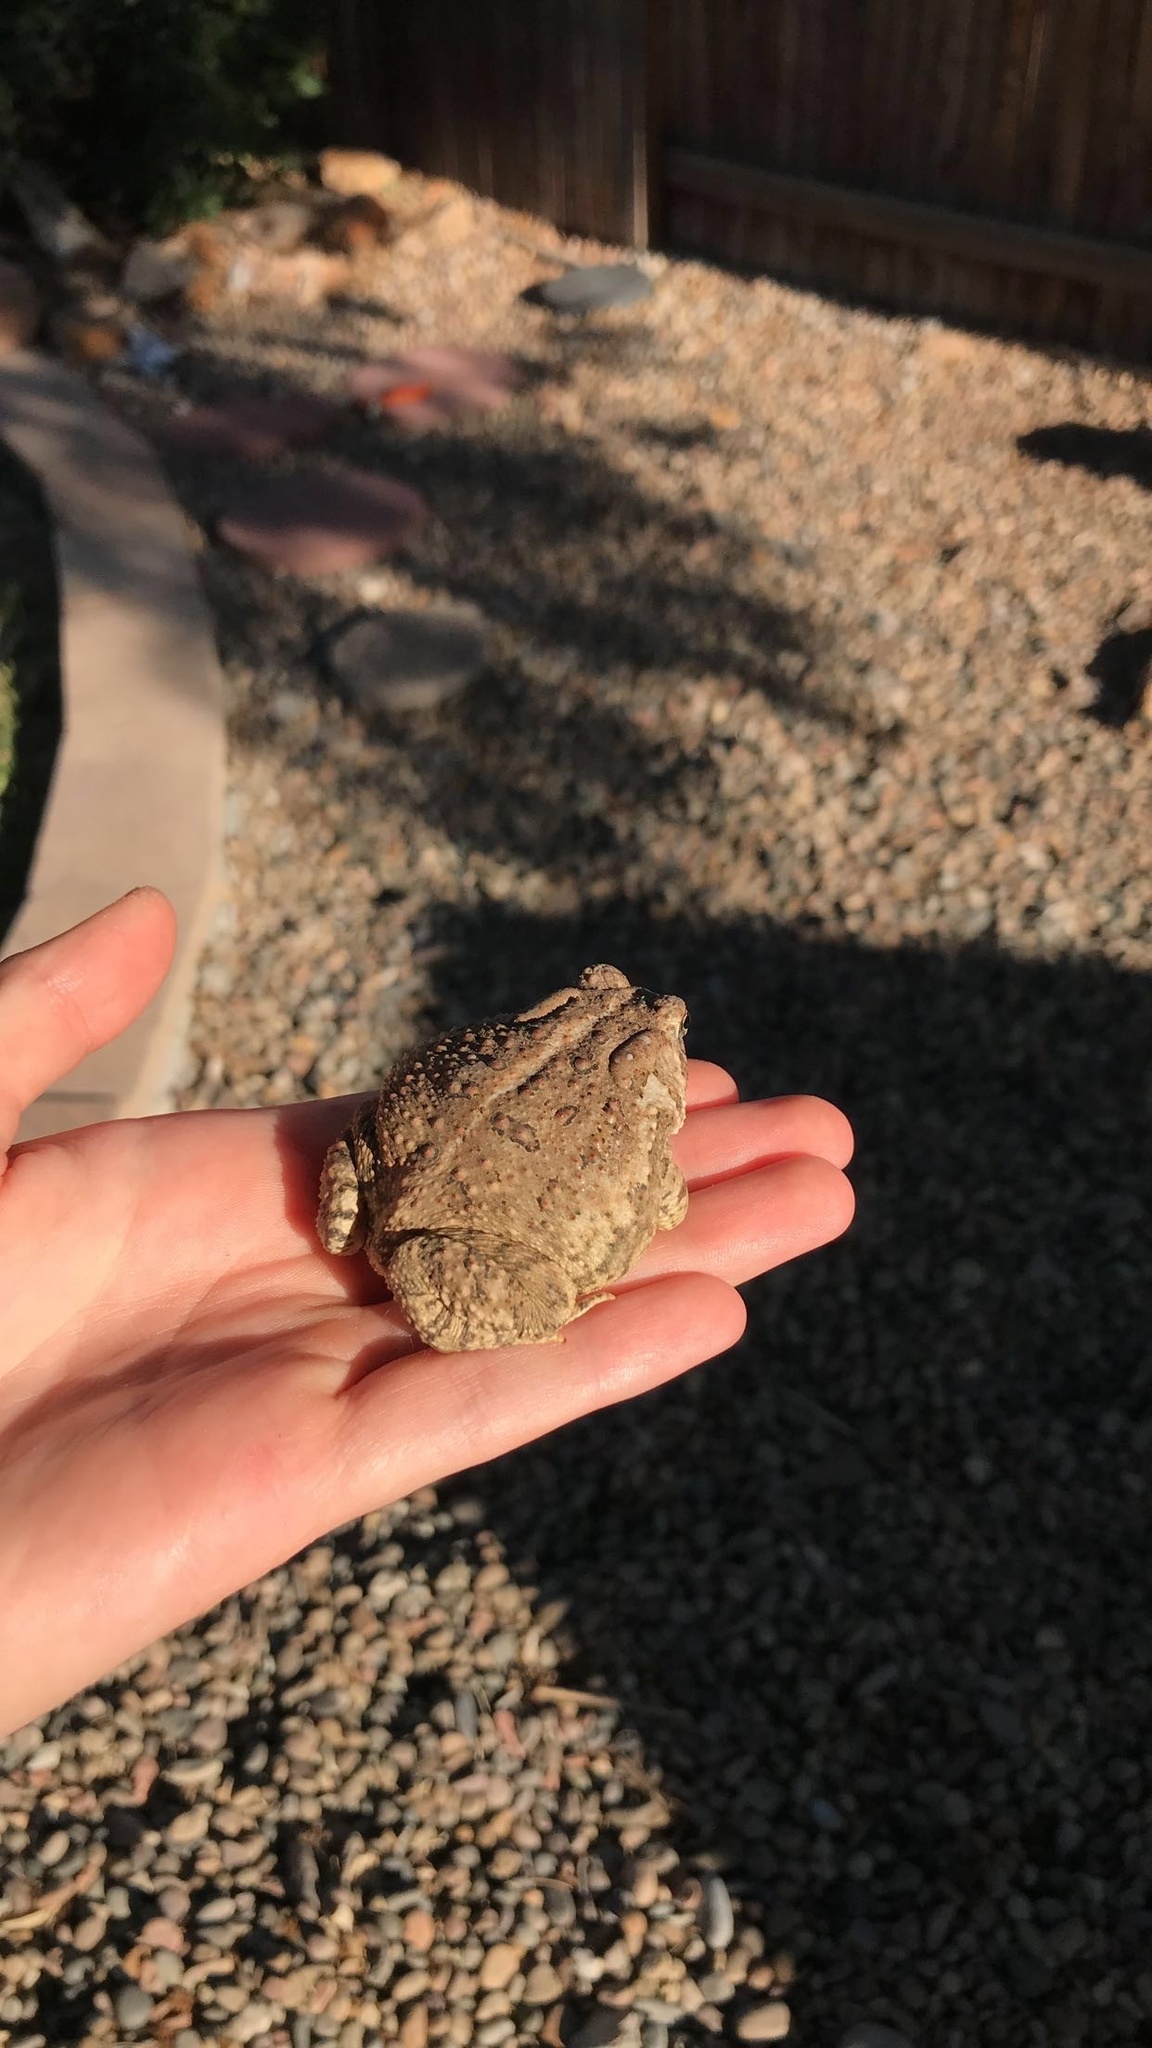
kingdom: Animalia
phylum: Chordata
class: Amphibia
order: Anura
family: Bufonidae
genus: Anaxyrus
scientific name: Anaxyrus woodhousii
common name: Woodhouse's toad
